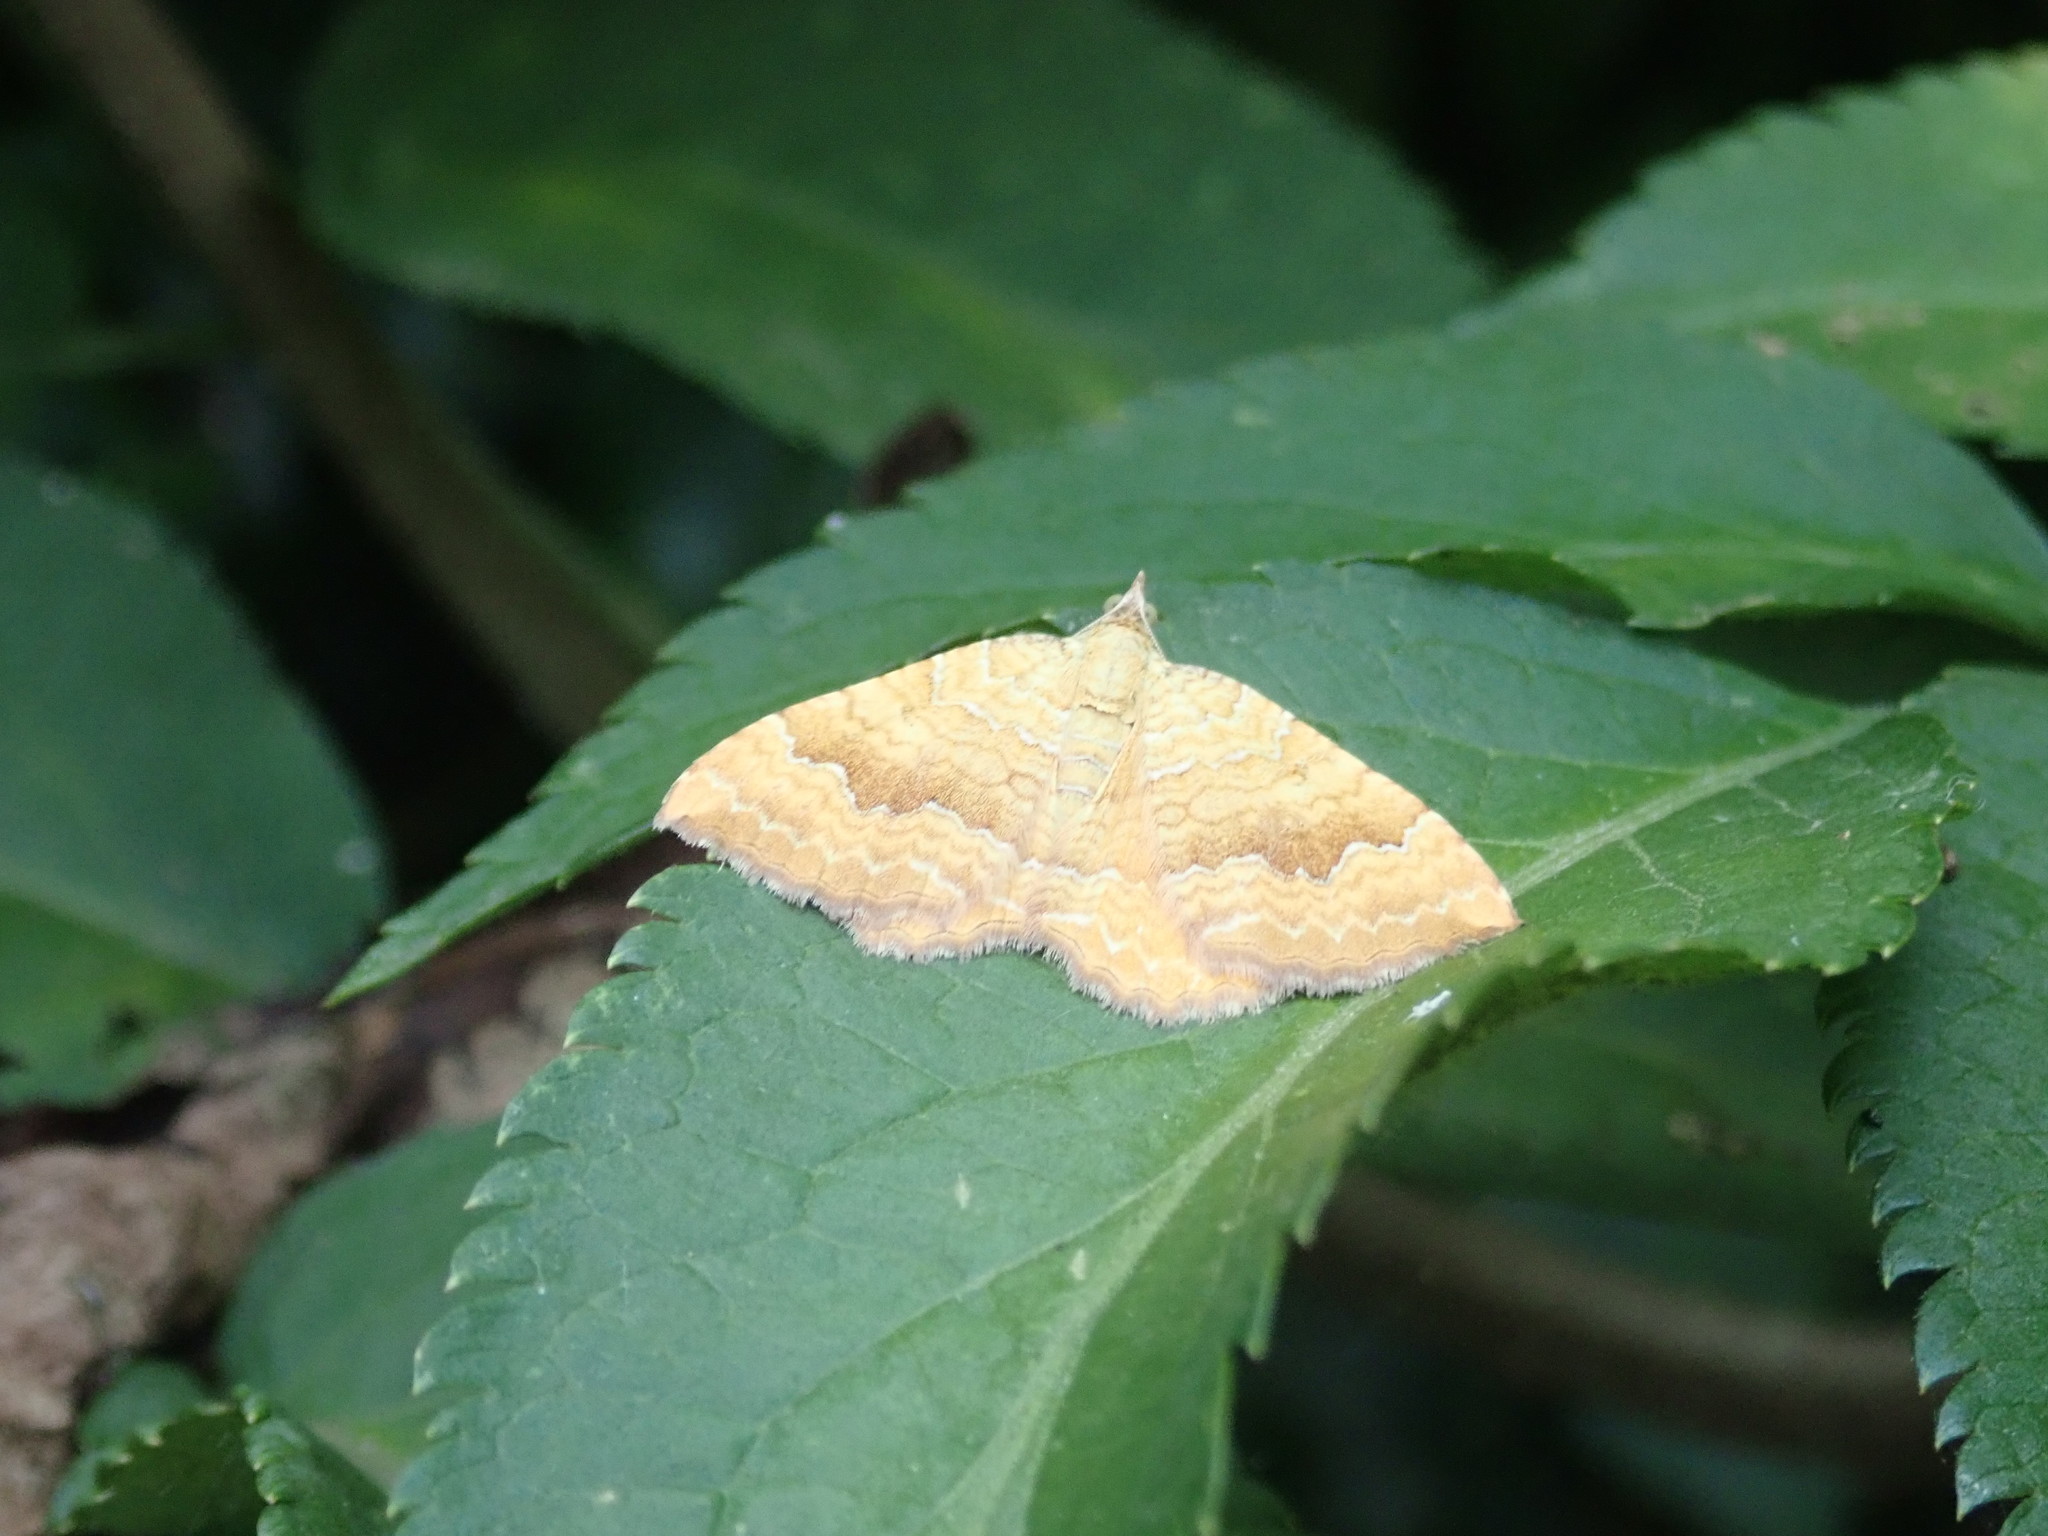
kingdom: Animalia
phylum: Arthropoda
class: Insecta
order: Lepidoptera
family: Geometridae
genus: Camptogramma
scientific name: Camptogramma bilineata
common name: Yellow shell
